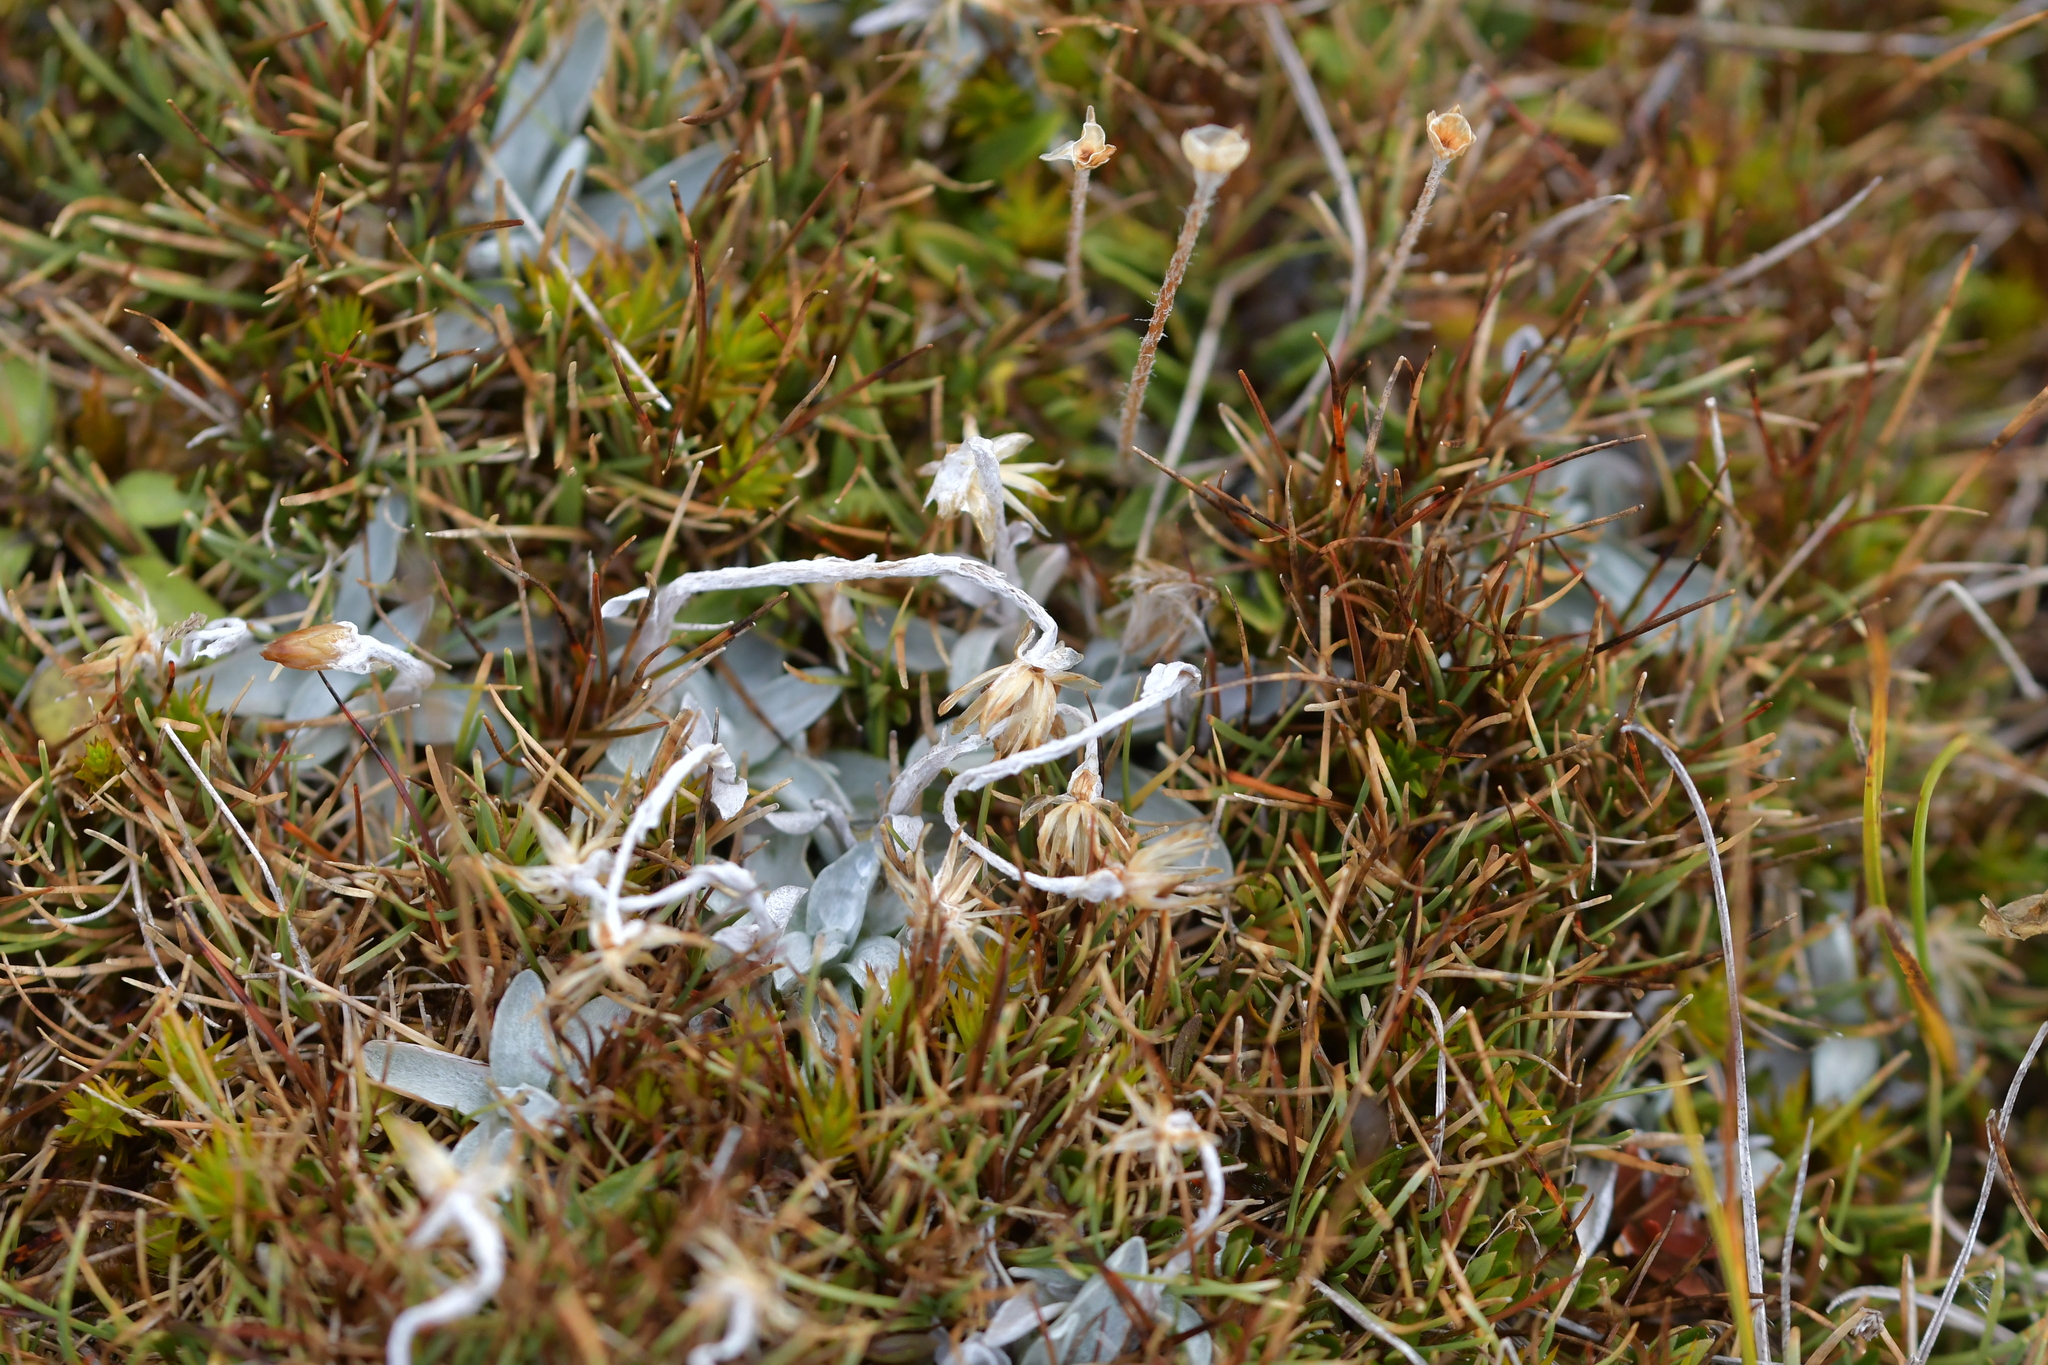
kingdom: Plantae
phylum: Tracheophyta
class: Magnoliopsida
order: Asterales
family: Asteraceae
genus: Euchiton
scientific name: Euchiton traversii
